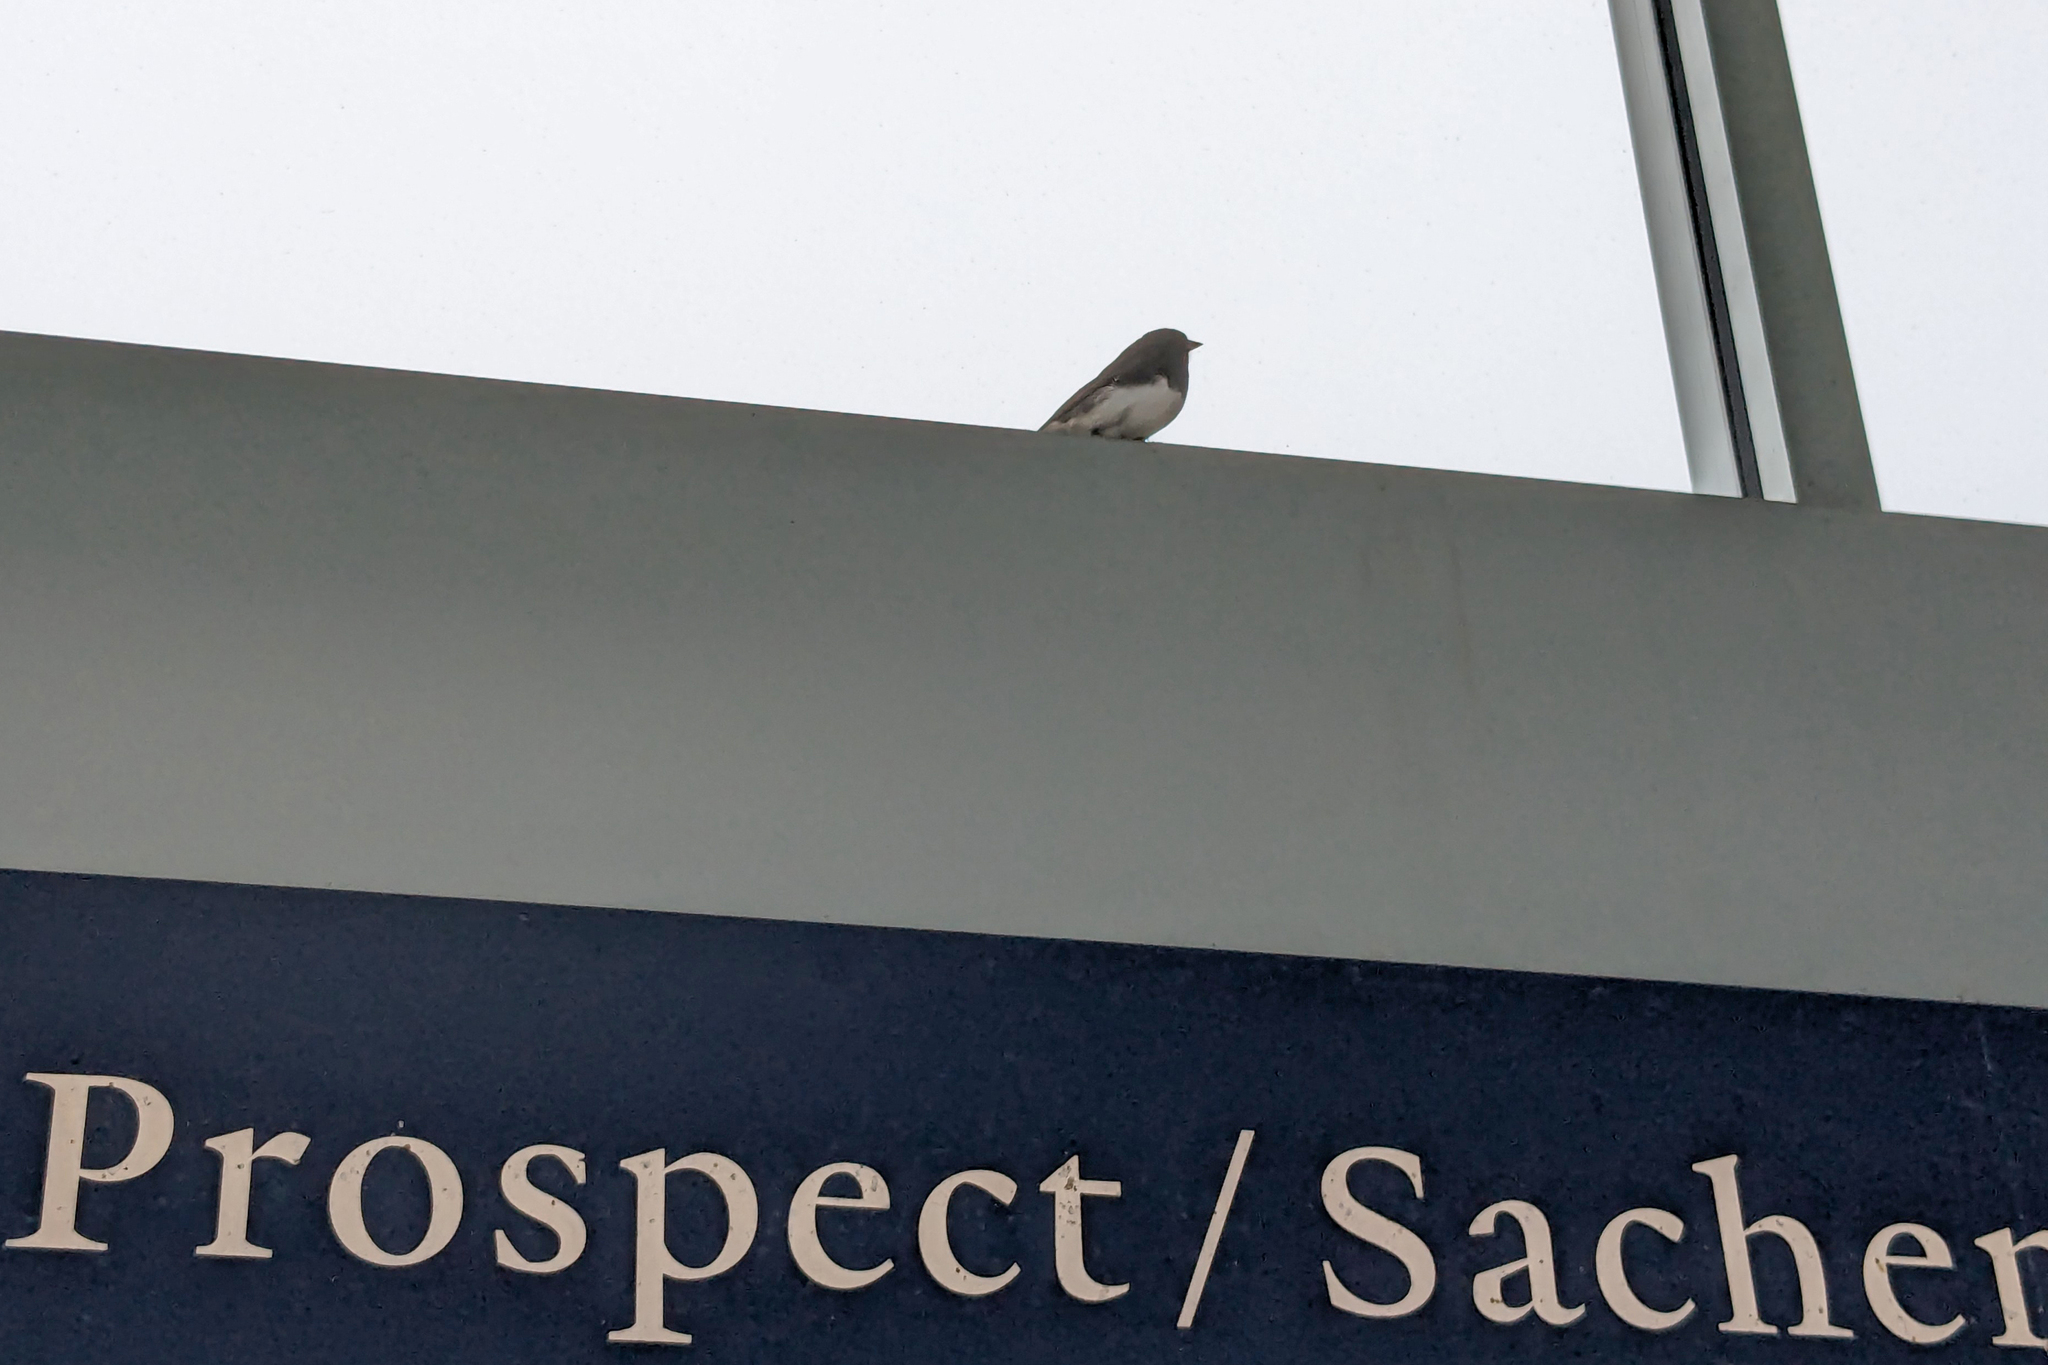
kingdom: Animalia
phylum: Chordata
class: Aves
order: Passeriformes
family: Passerellidae
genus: Junco
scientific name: Junco hyemalis
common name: Dark-eyed junco
